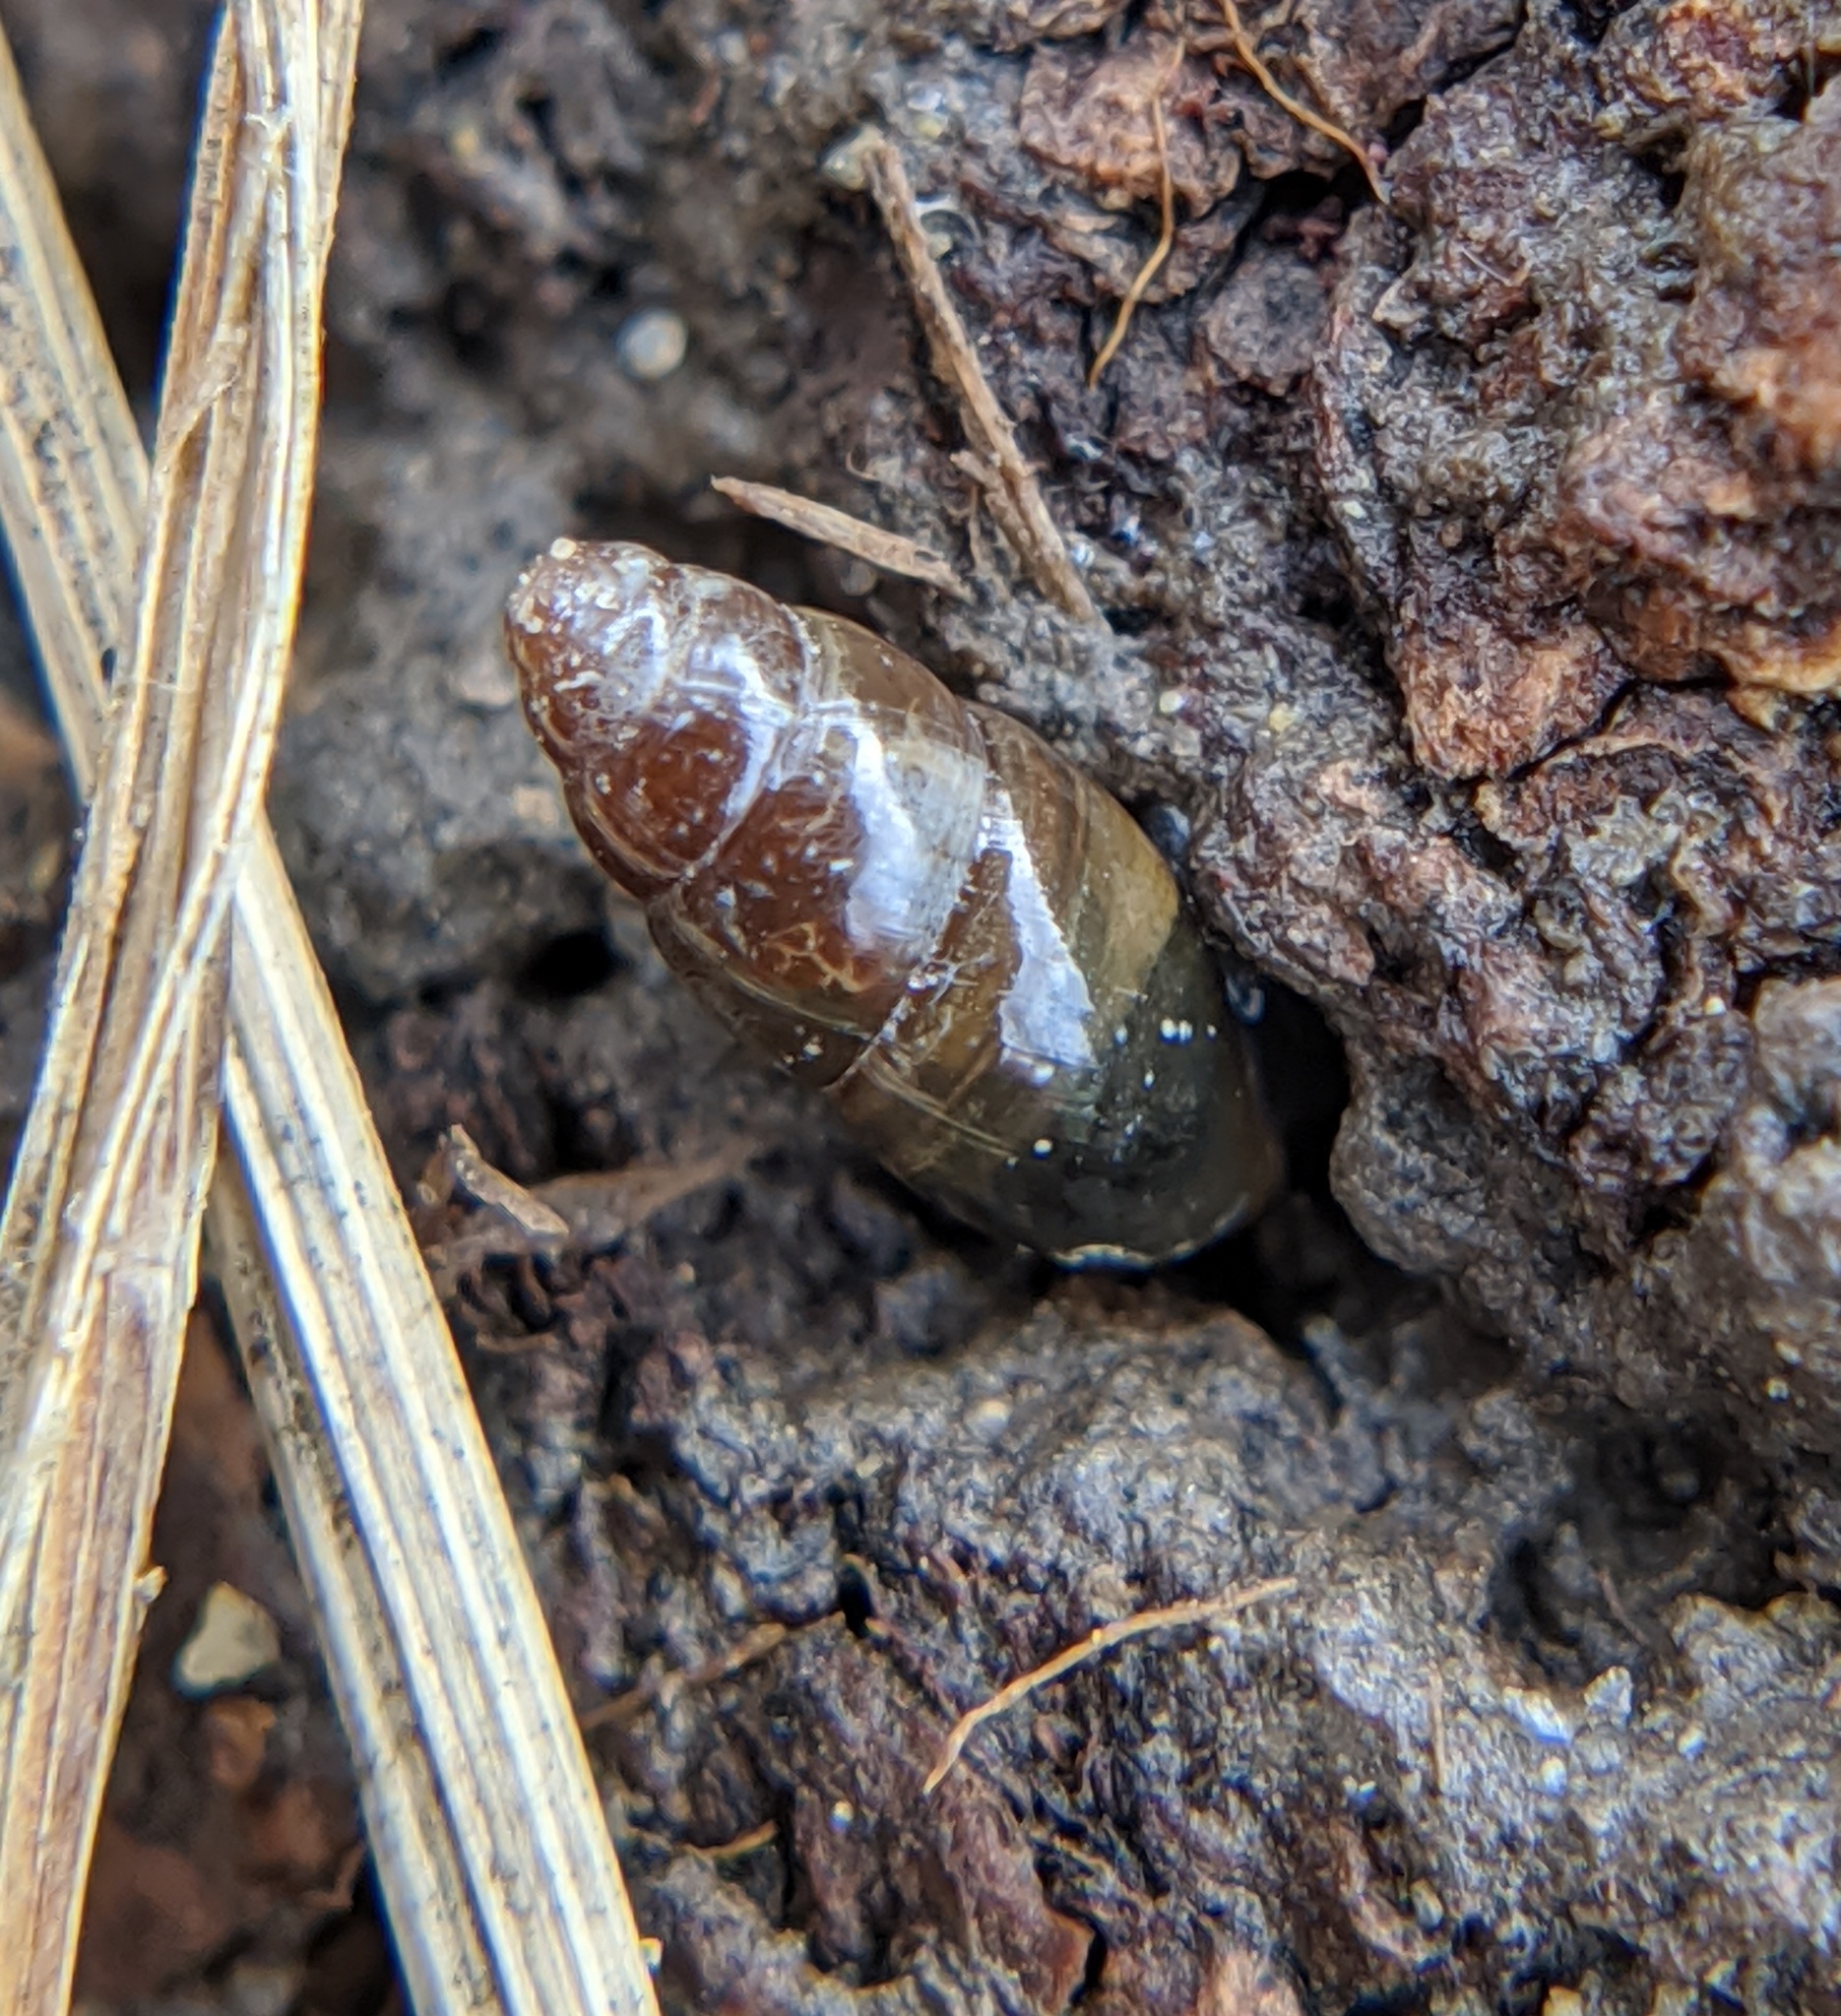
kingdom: Animalia
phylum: Mollusca
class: Gastropoda
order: Stylommatophora
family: Cochlicopidae
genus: Cochlicopa
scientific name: Cochlicopa lubrica
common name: Glossy pillar snail
